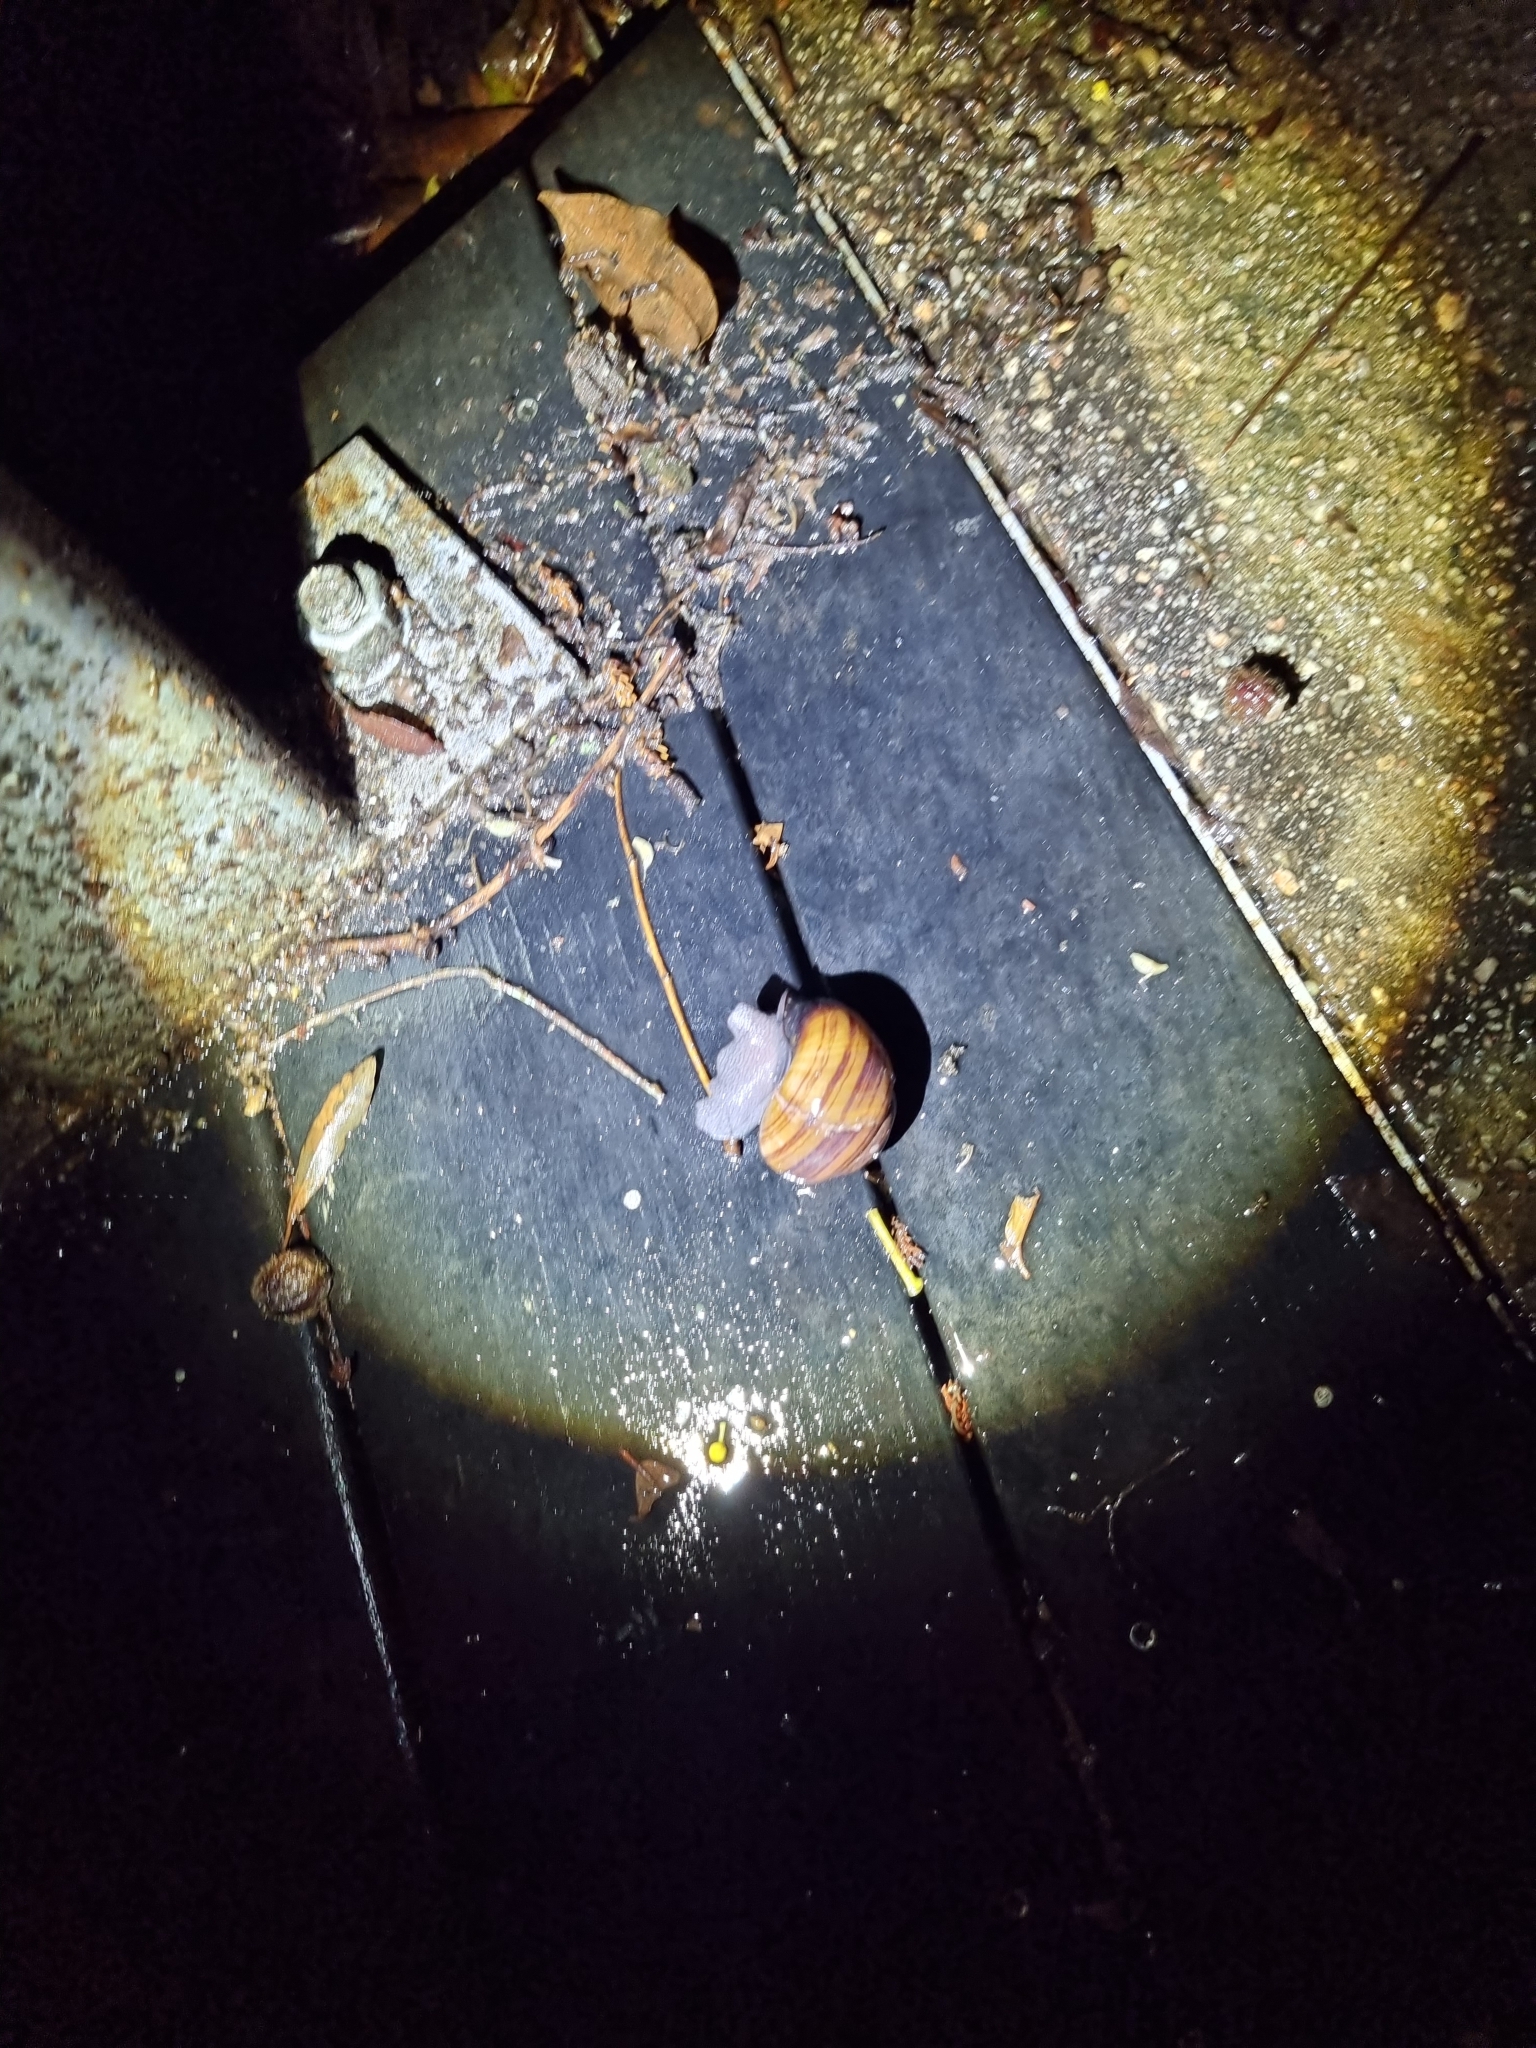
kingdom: Animalia
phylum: Mollusca
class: Gastropoda
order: Stylommatophora
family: Camaenidae
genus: Sphaerospira
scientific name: Sphaerospira fraseri
